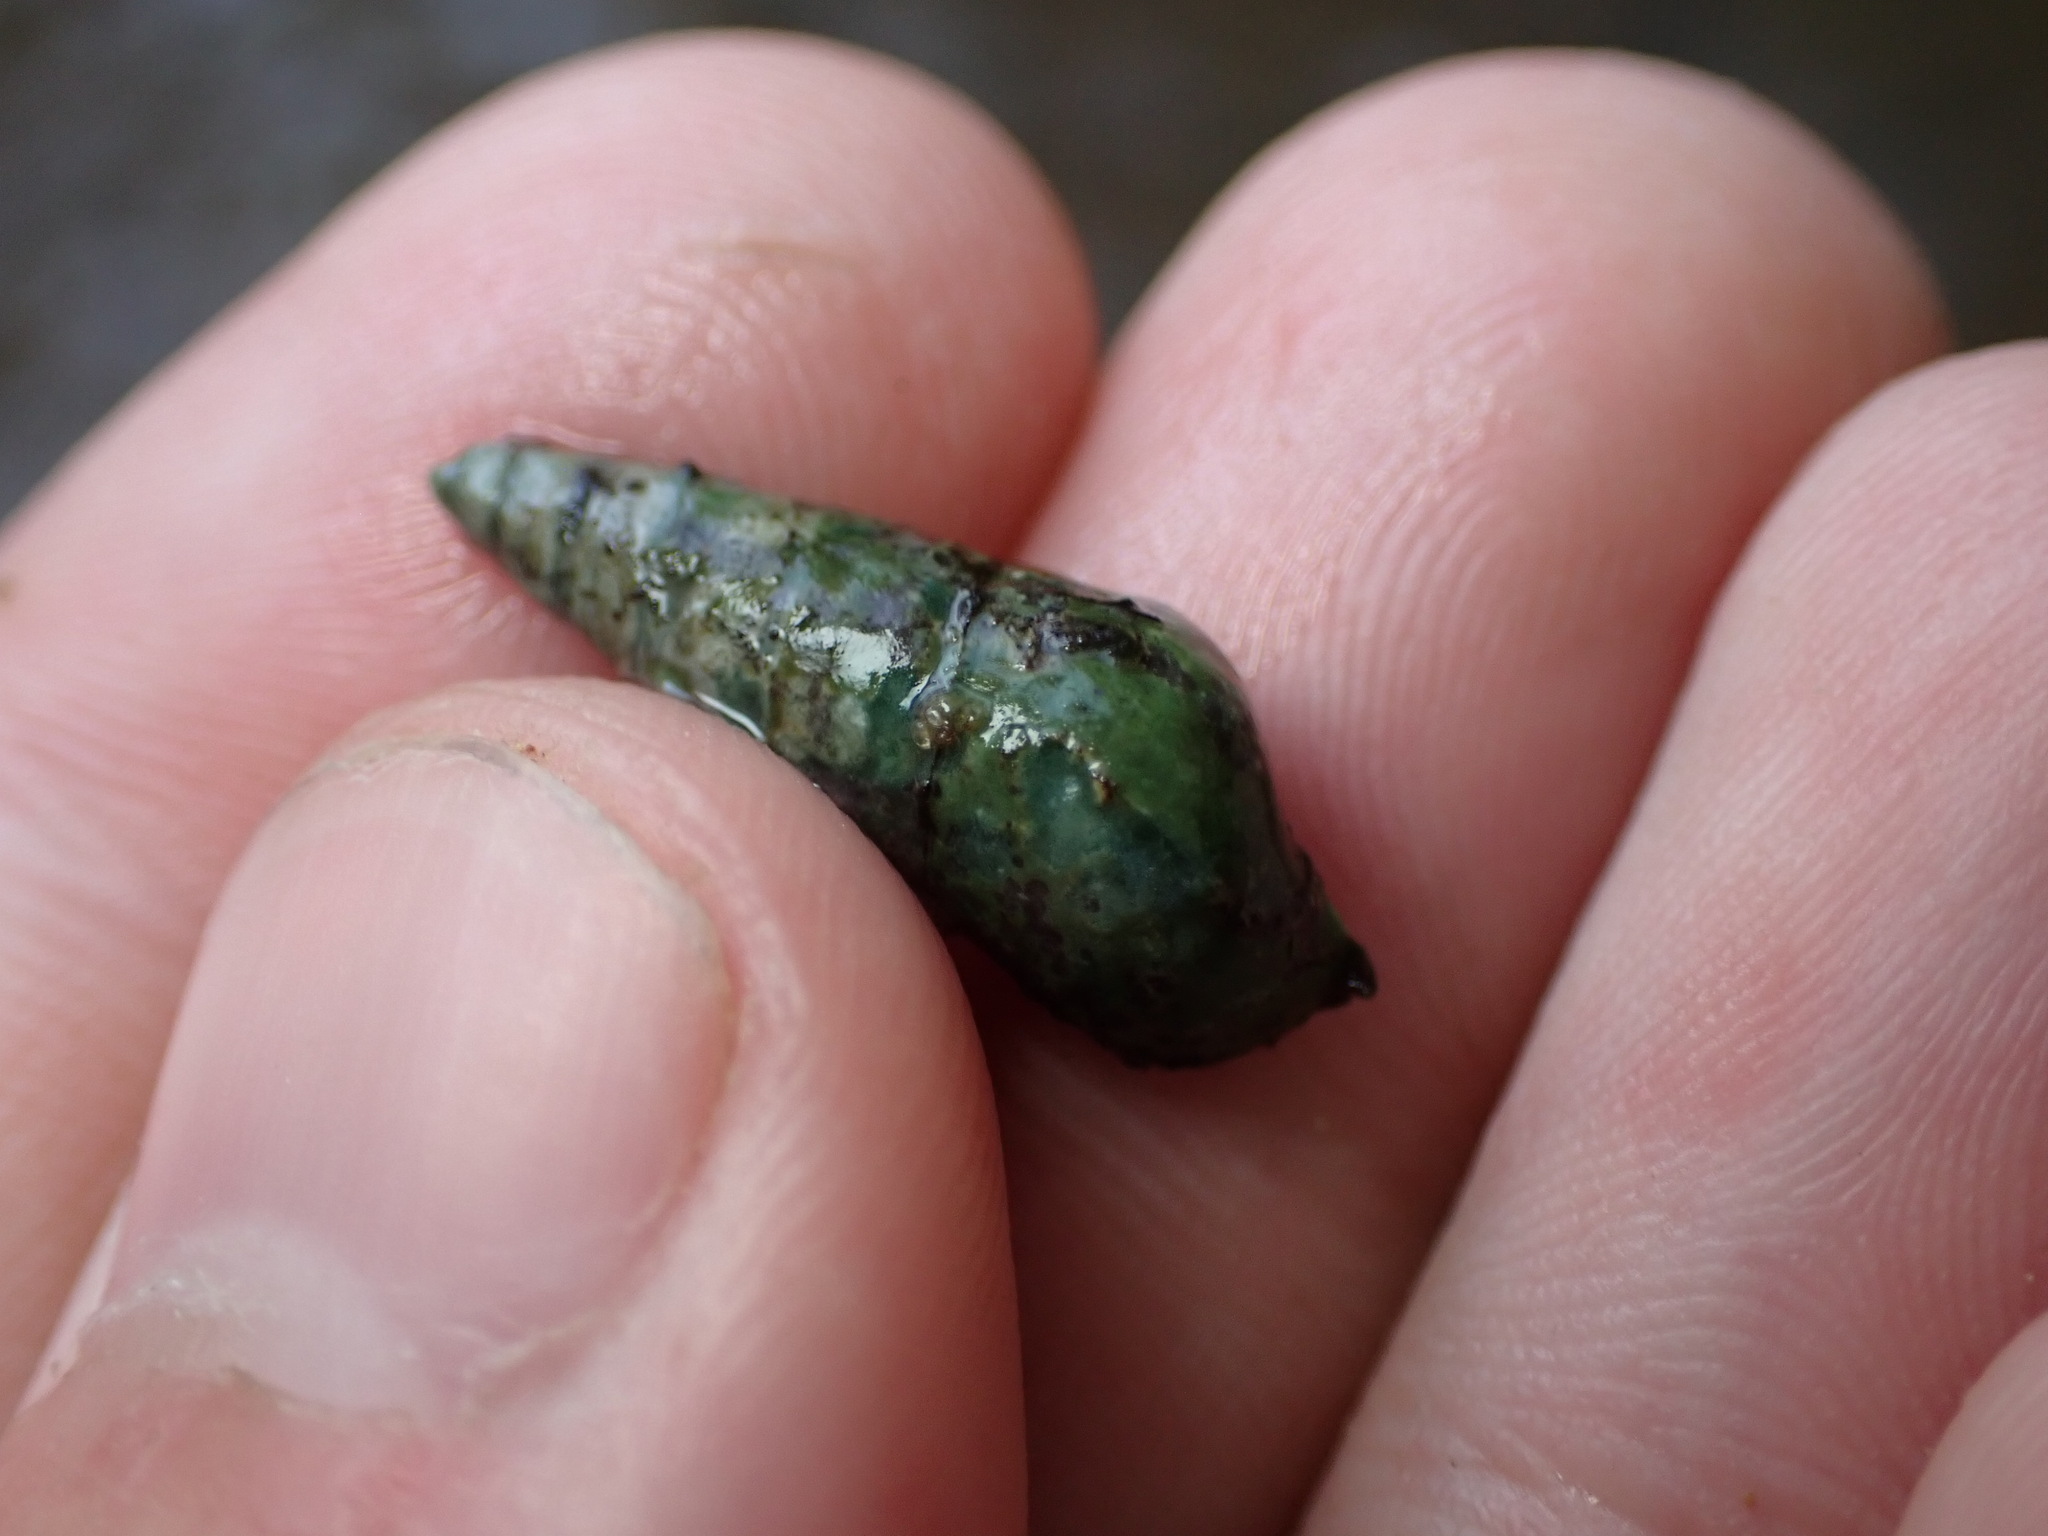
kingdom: Animalia
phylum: Mollusca
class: Gastropoda
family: Pleuroceridae
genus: Pleurocera
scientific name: Pleurocera attenuata
